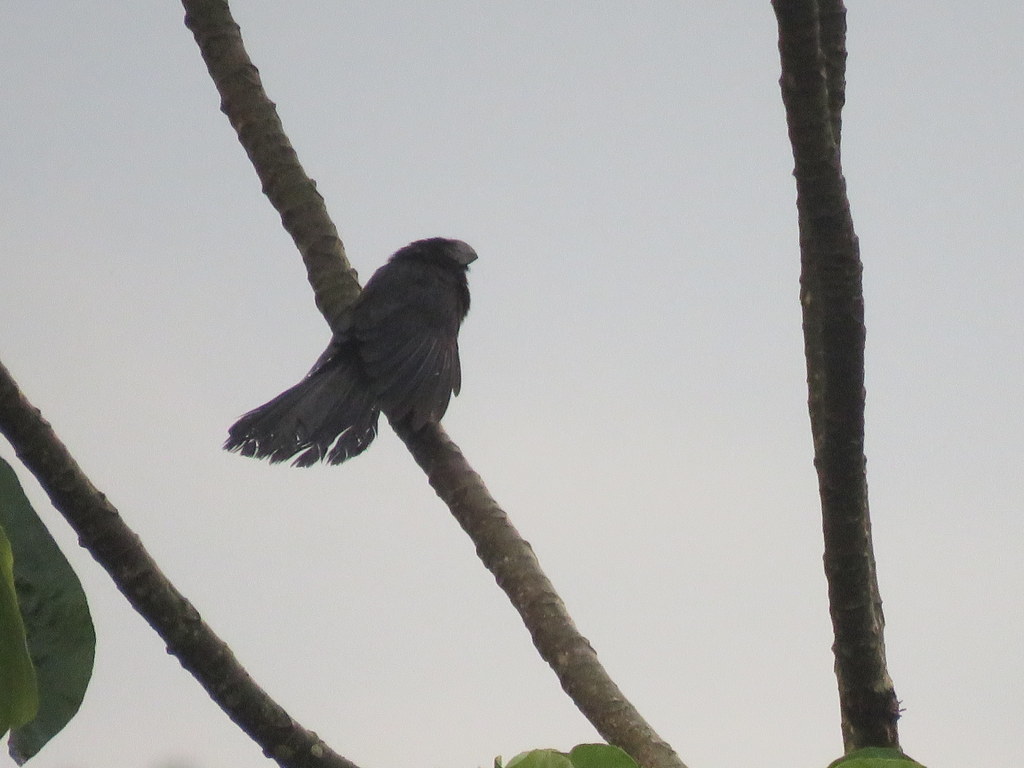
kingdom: Animalia
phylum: Chordata
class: Aves
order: Cuculiformes
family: Cuculidae
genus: Crotophaga
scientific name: Crotophaga ani
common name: Smooth-billed ani
